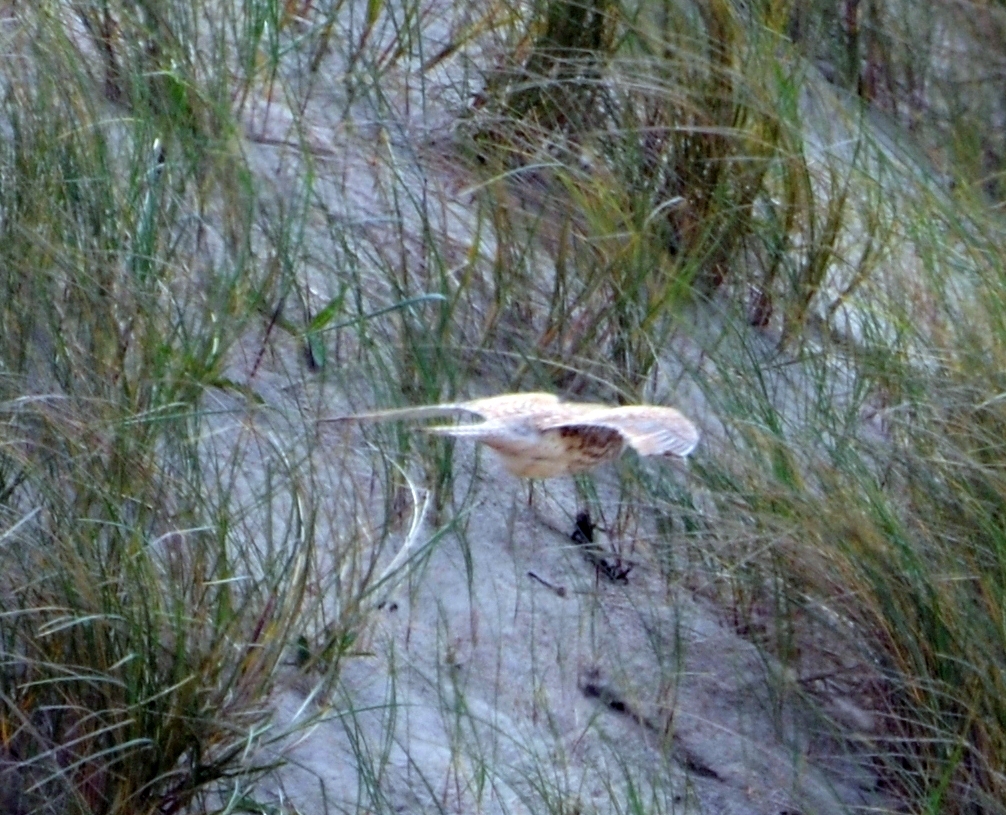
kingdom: Animalia
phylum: Chordata
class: Aves
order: Falconiformes
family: Falconidae
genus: Falco
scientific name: Falco tinnunculus
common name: Common kestrel
